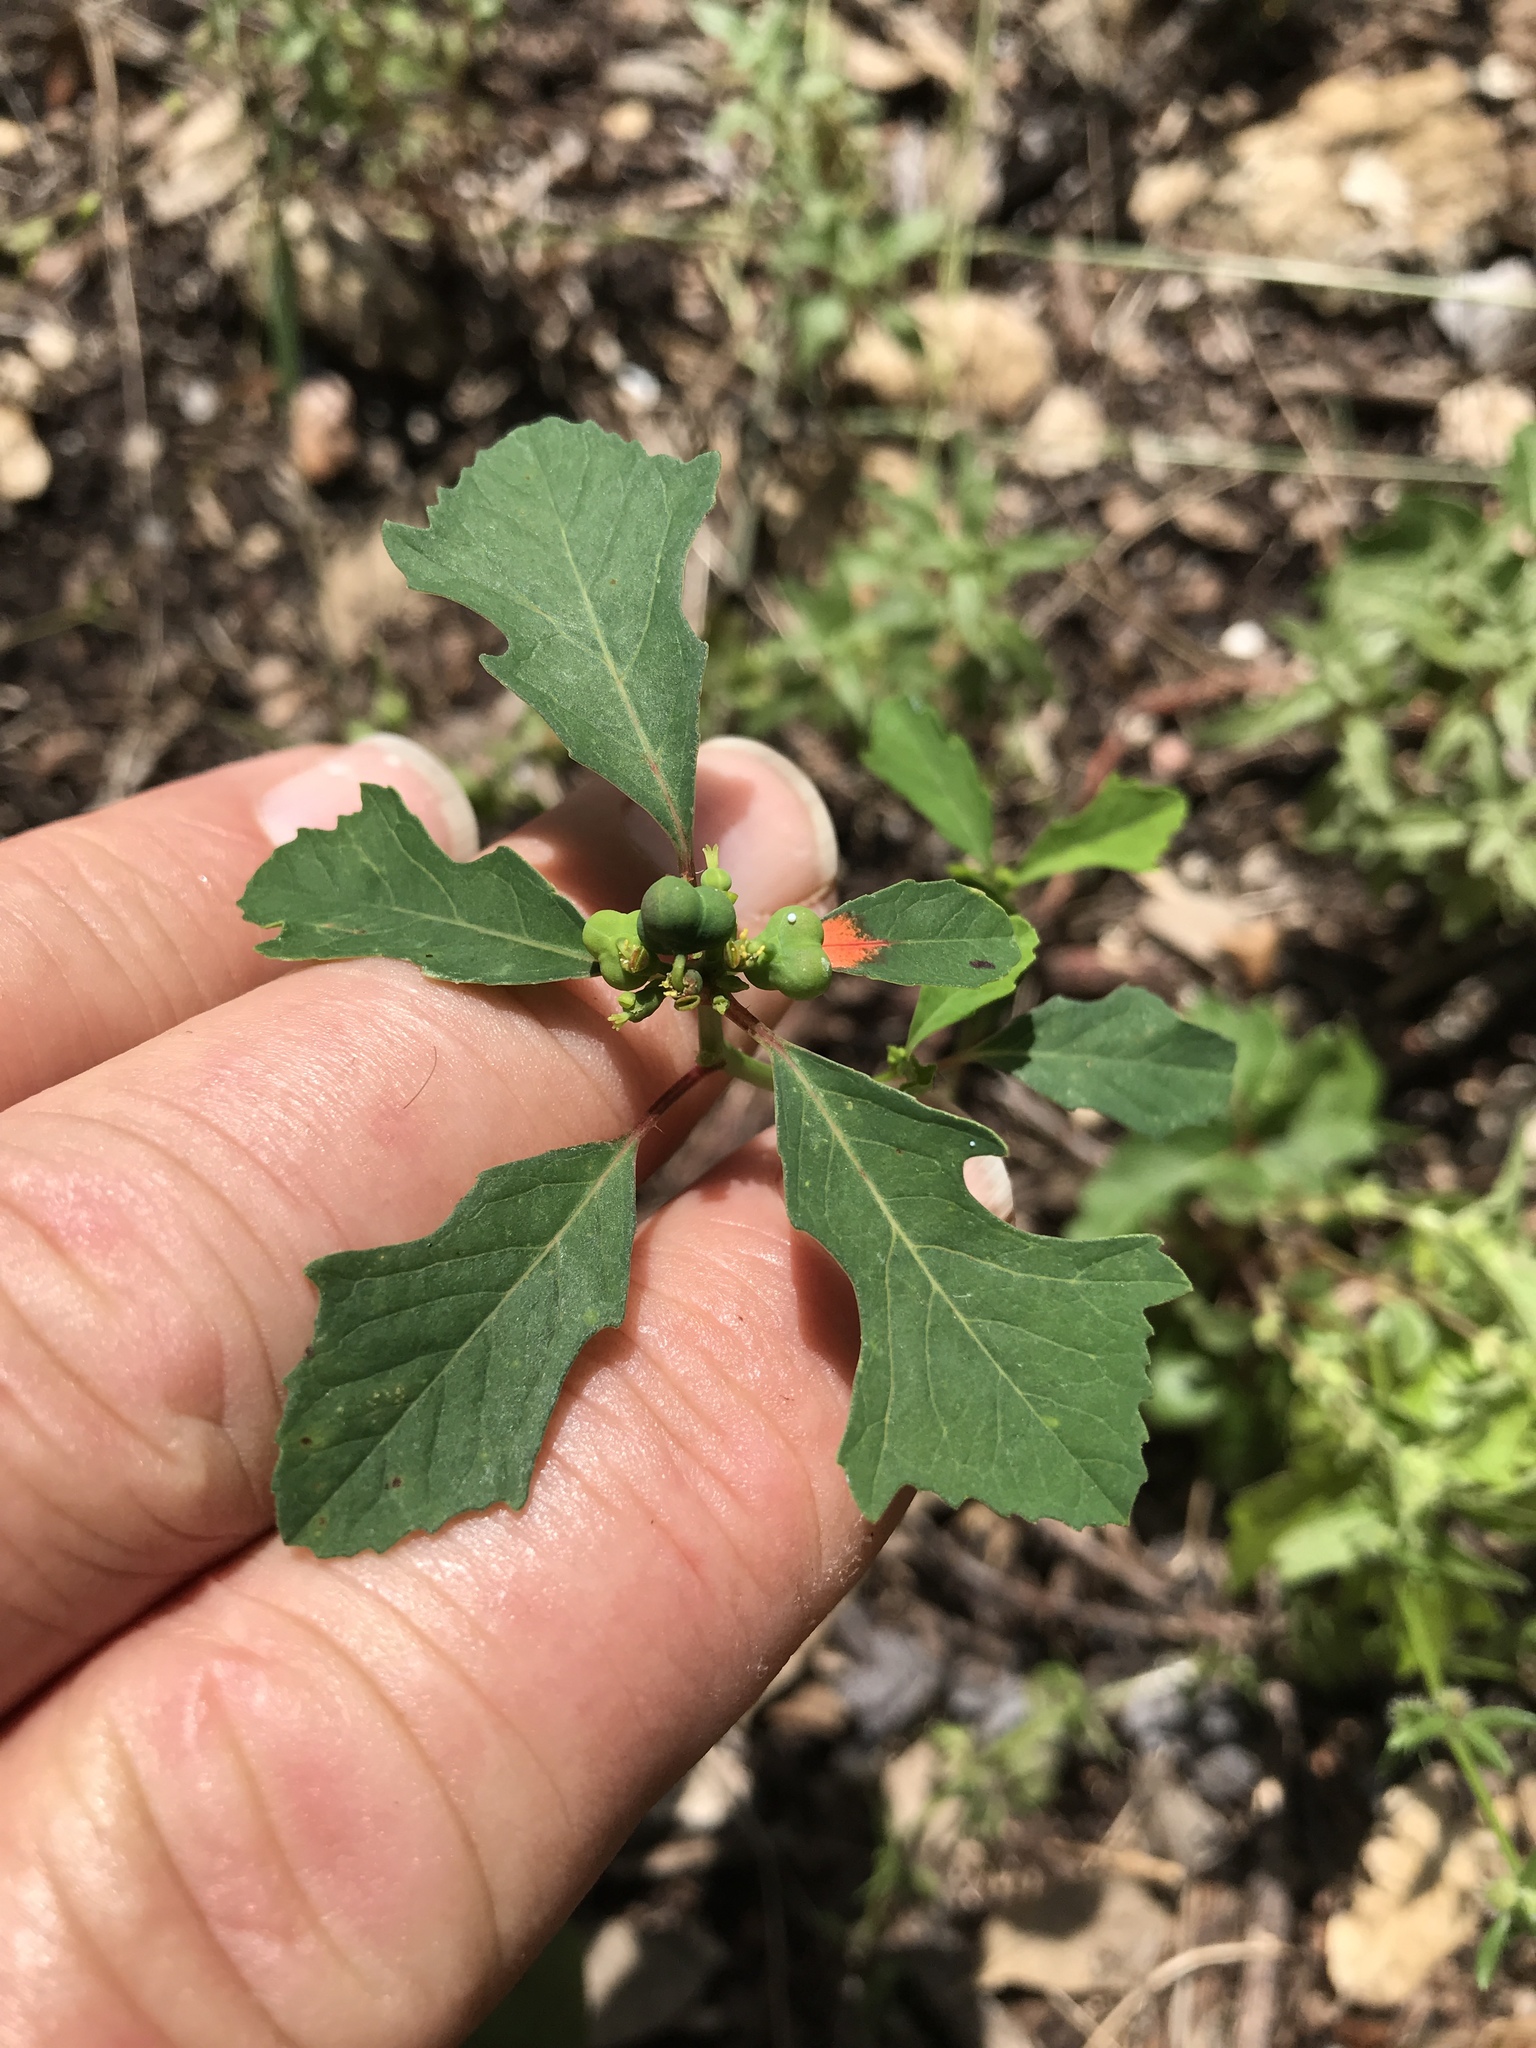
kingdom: Plantae
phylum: Tracheophyta
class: Magnoliopsida
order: Malpighiales
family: Euphorbiaceae
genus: Euphorbia
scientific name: Euphorbia heterophylla
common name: Mexican fireplant
